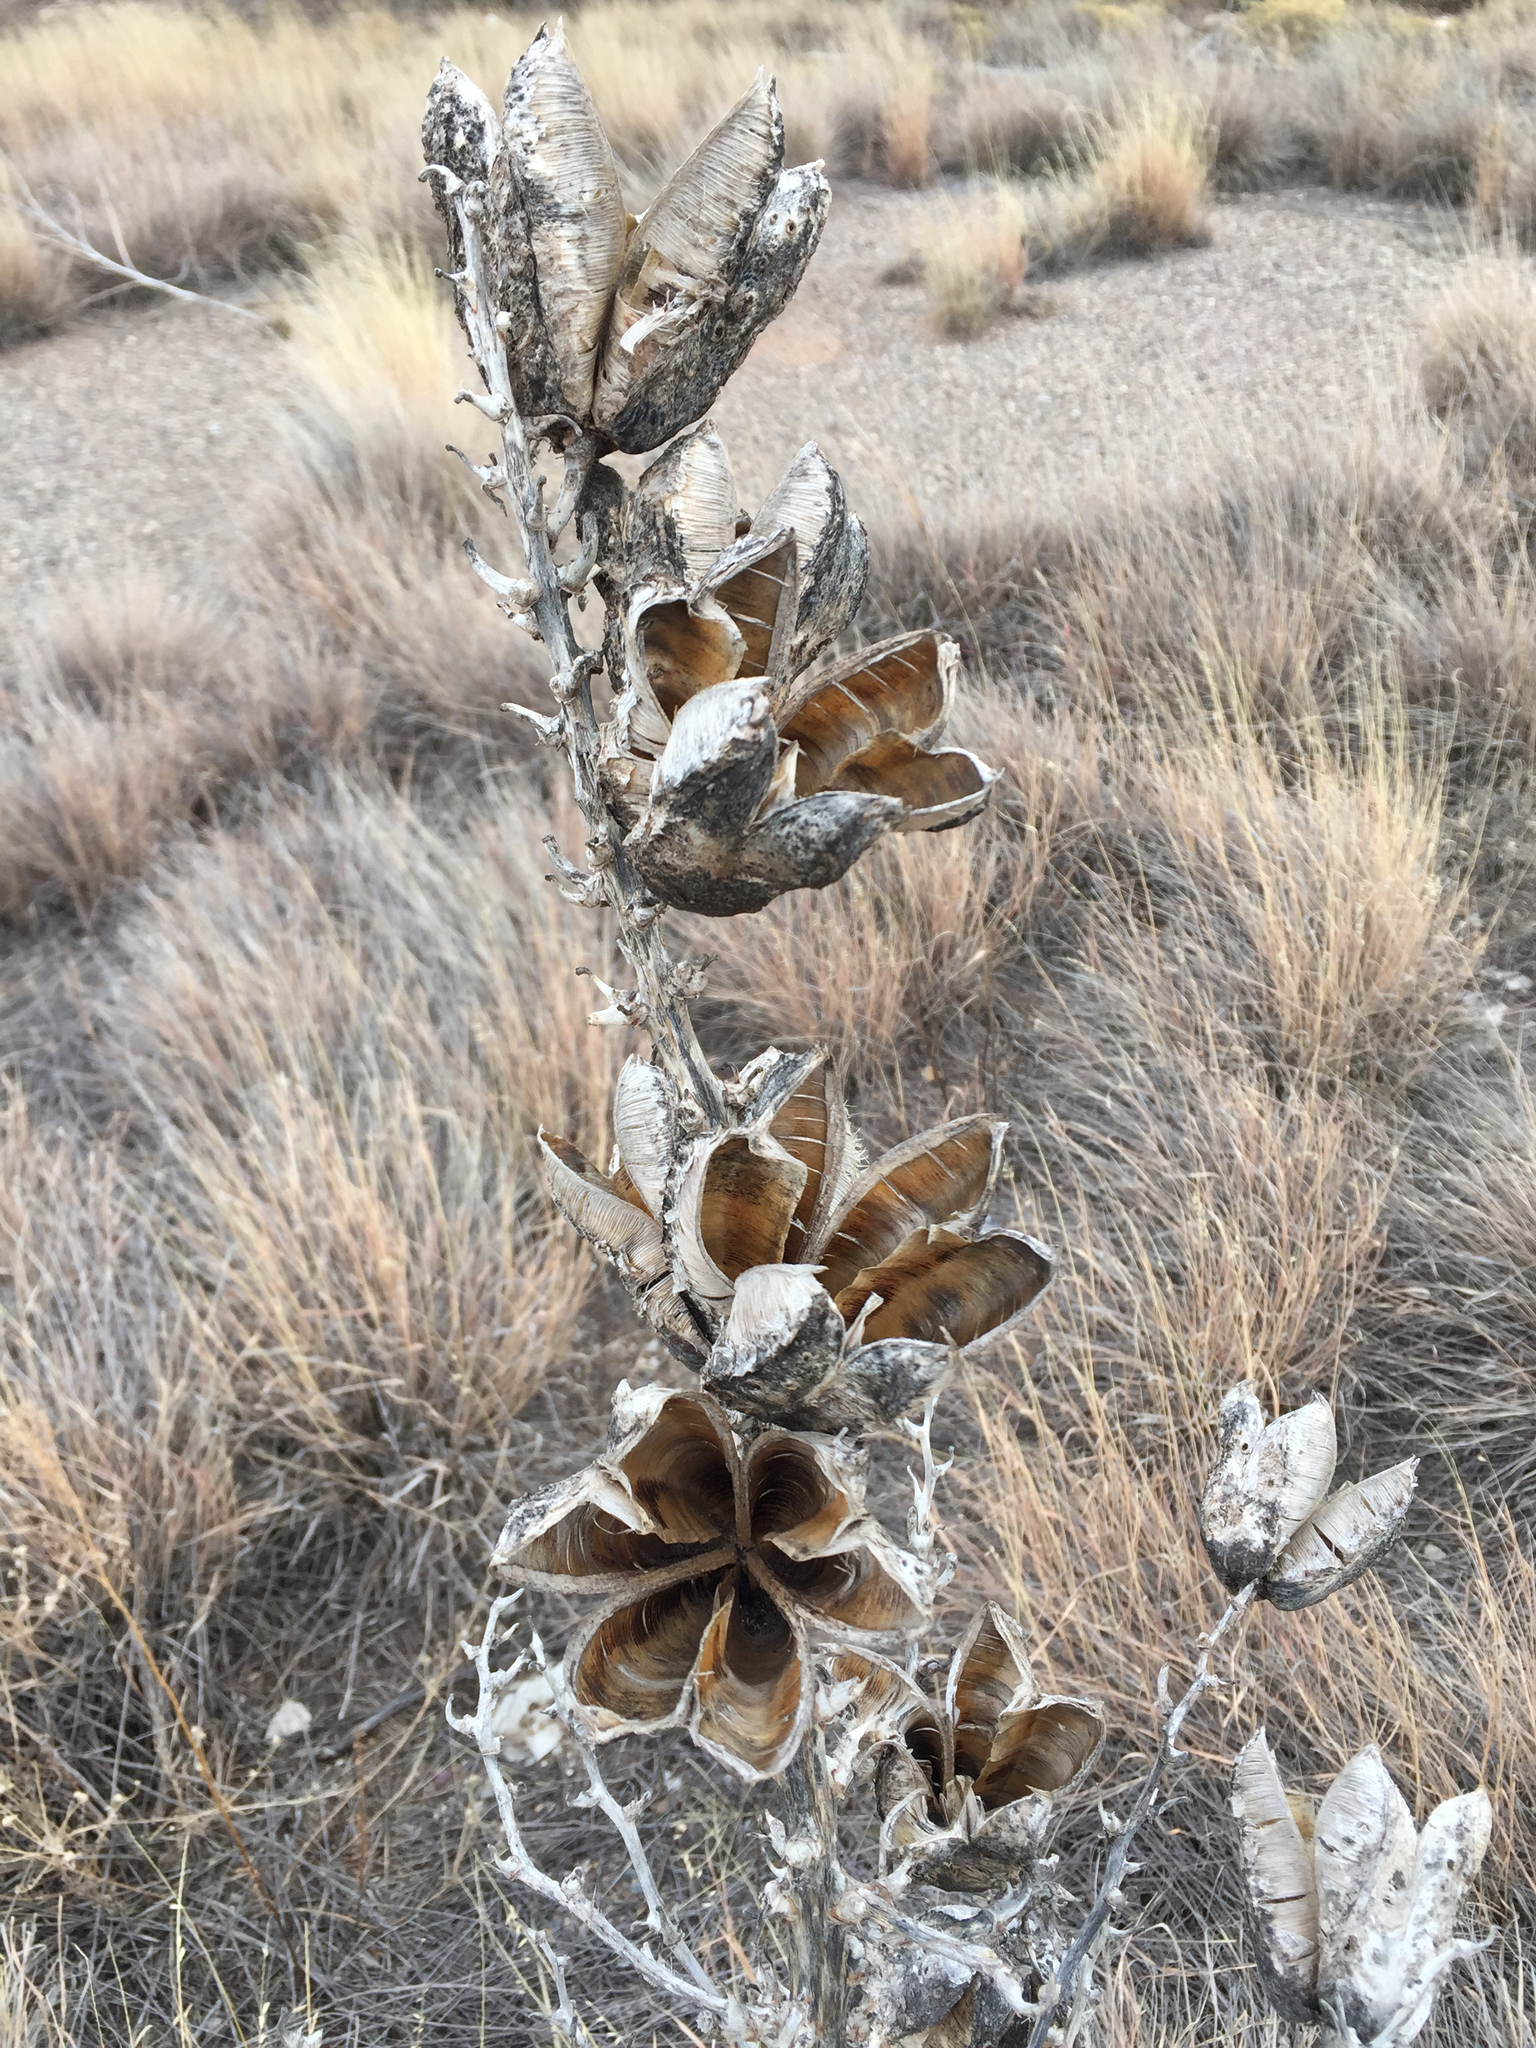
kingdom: Plantae
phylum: Tracheophyta
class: Liliopsida
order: Asparagales
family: Asparagaceae
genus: Yucca
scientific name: Yucca campestris
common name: Plains yucca
